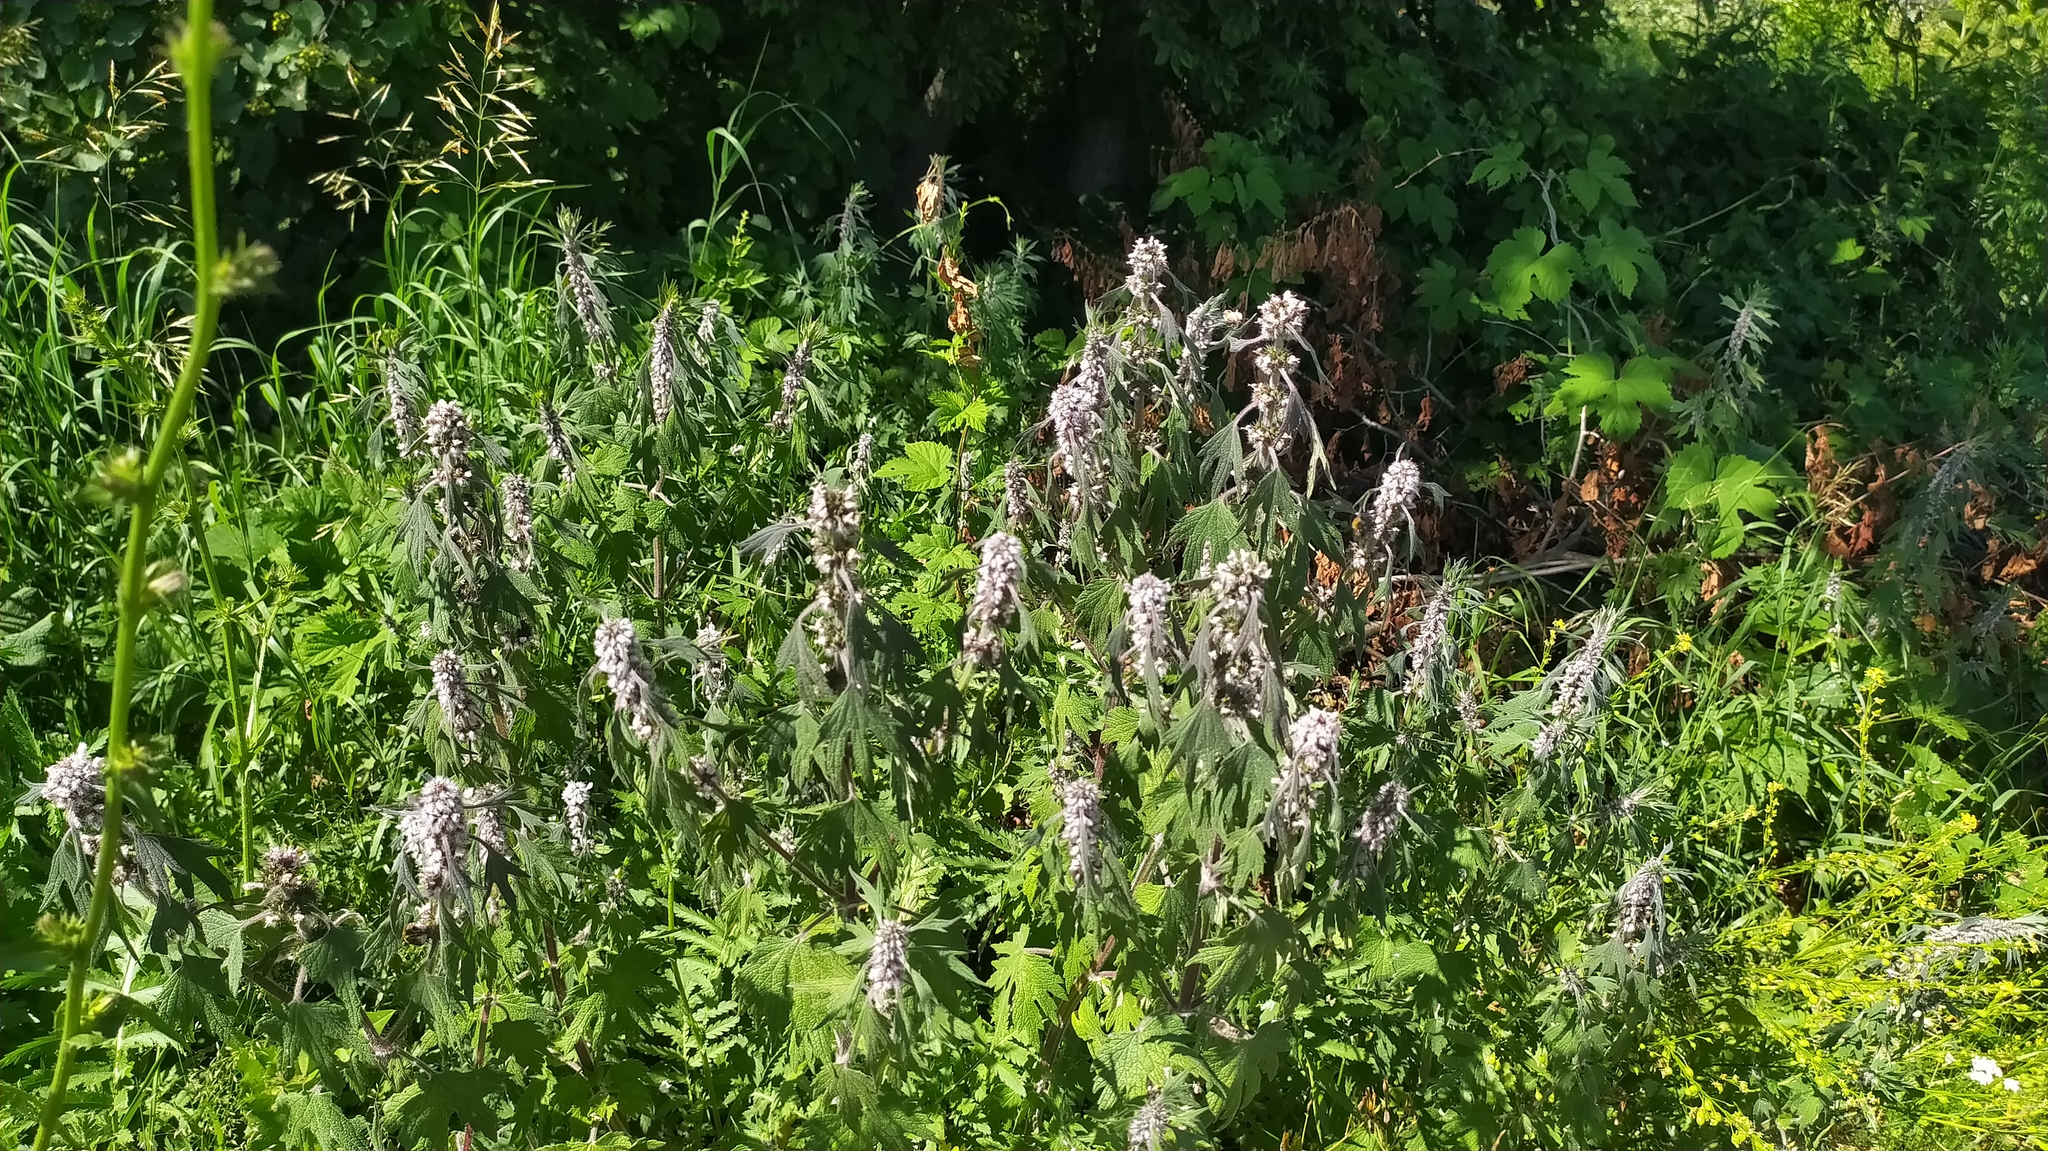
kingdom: Plantae
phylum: Tracheophyta
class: Magnoliopsida
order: Lamiales
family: Lamiaceae
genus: Leonurus
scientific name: Leonurus quinquelobatus
